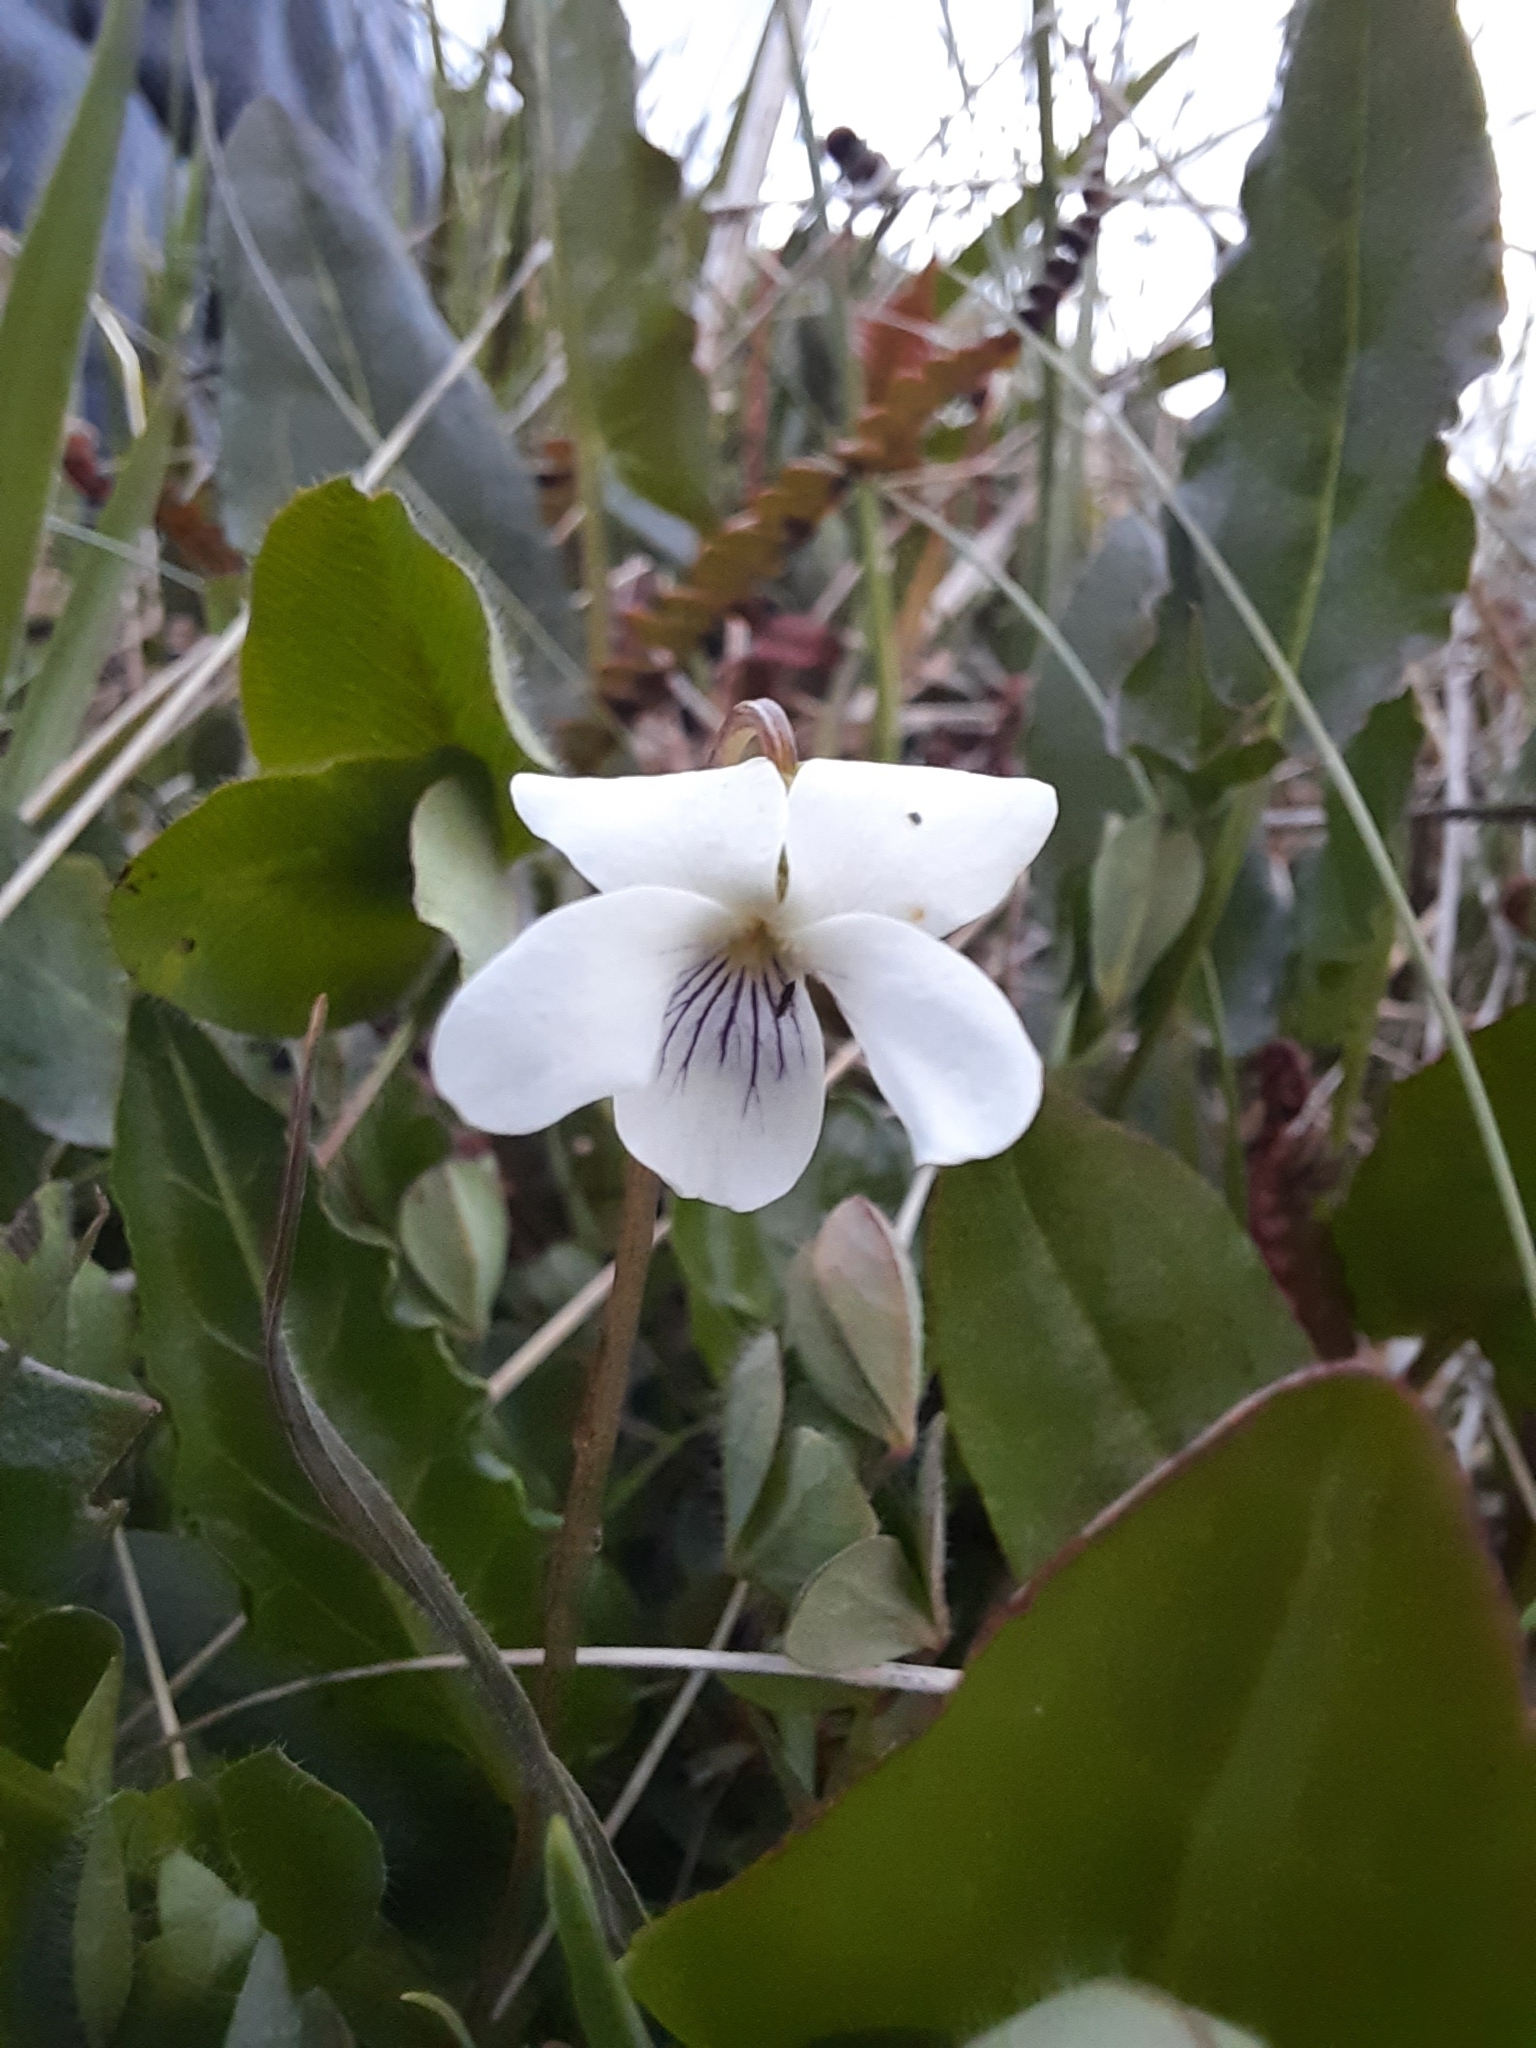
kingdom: Plantae
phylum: Tracheophyta
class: Magnoliopsida
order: Malpighiales
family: Violaceae
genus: Viola
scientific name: Viola cunninghamii
